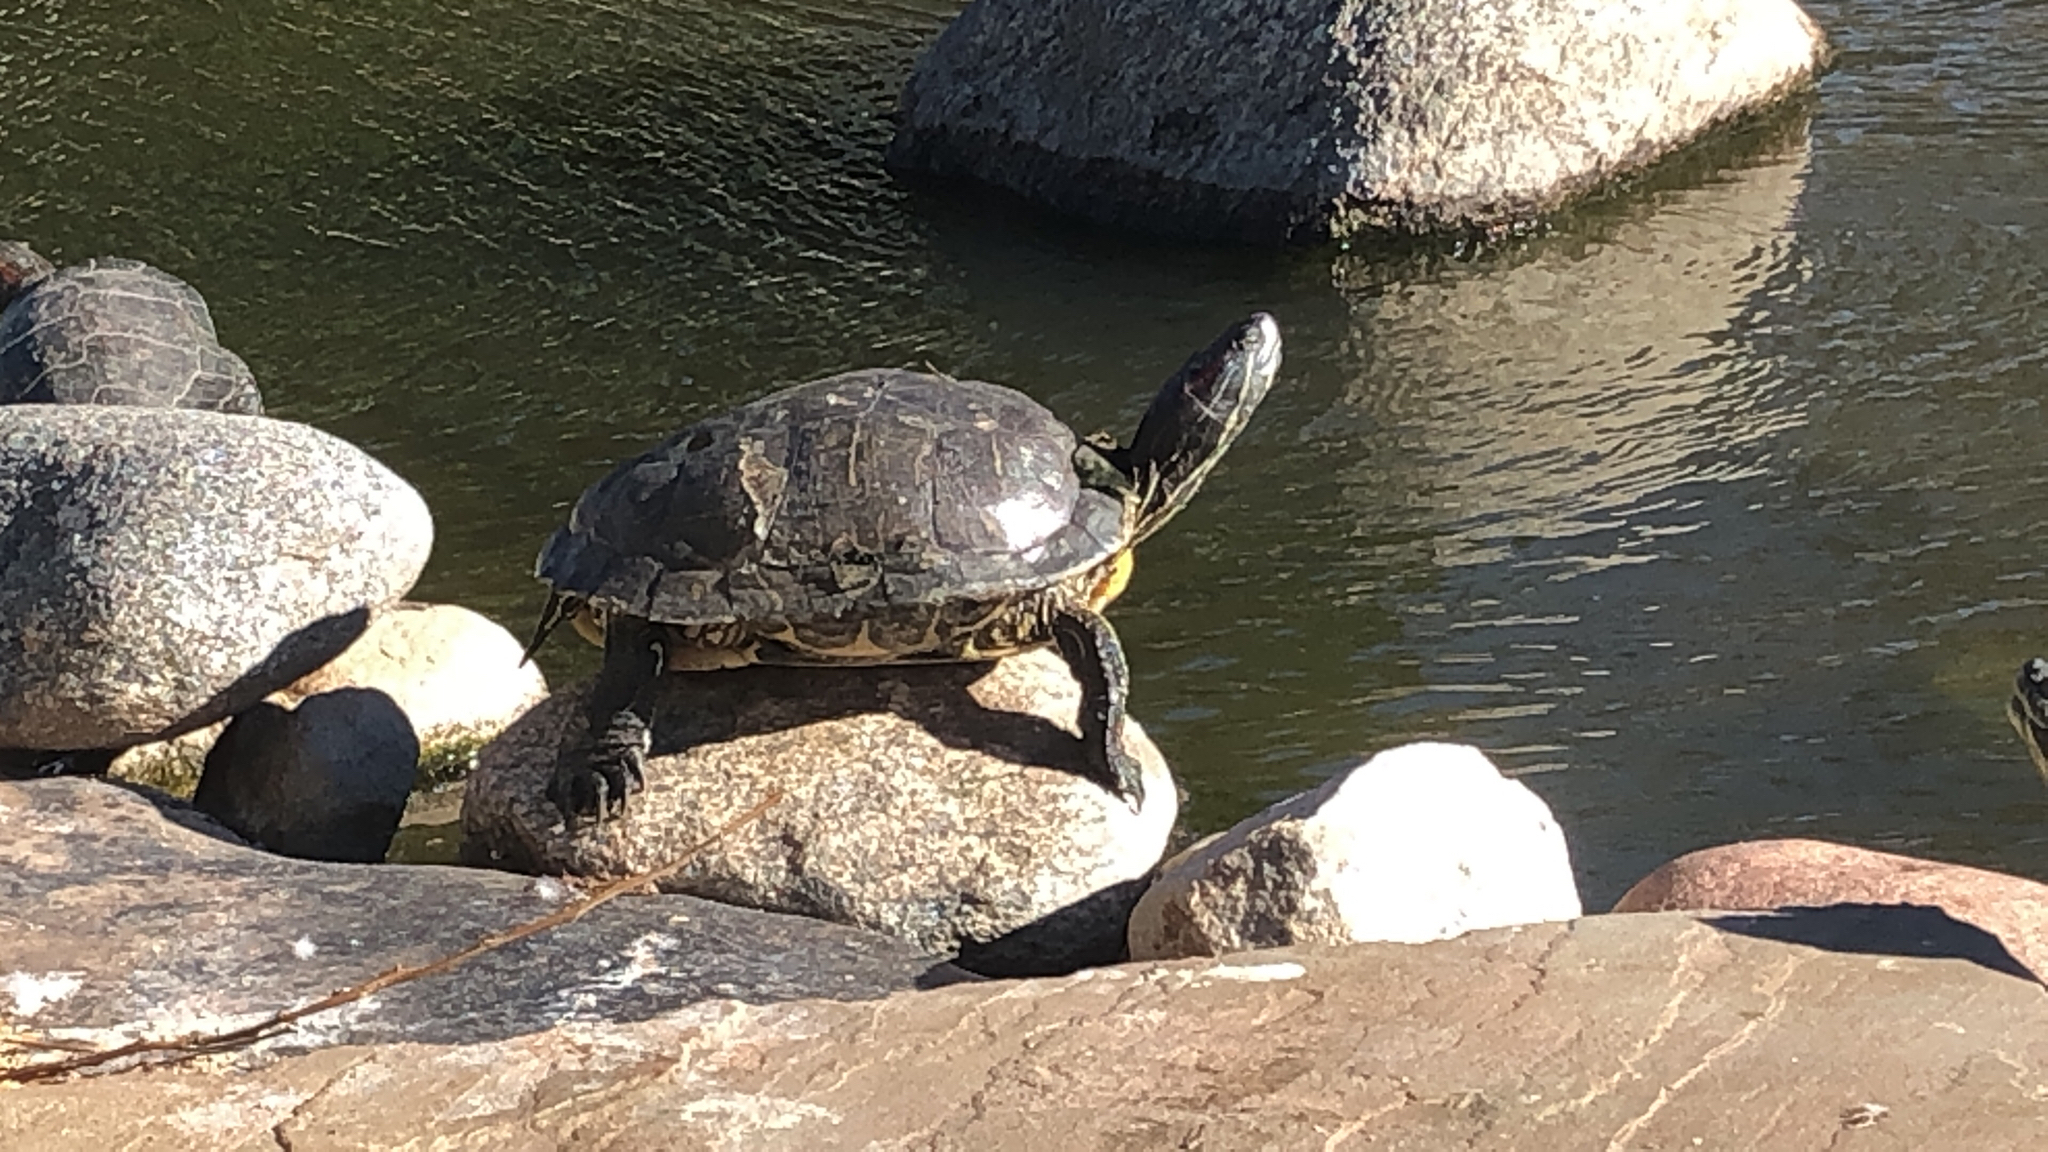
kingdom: Animalia
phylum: Chordata
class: Testudines
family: Emydidae
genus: Trachemys
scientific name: Trachemys scripta
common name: Slider
